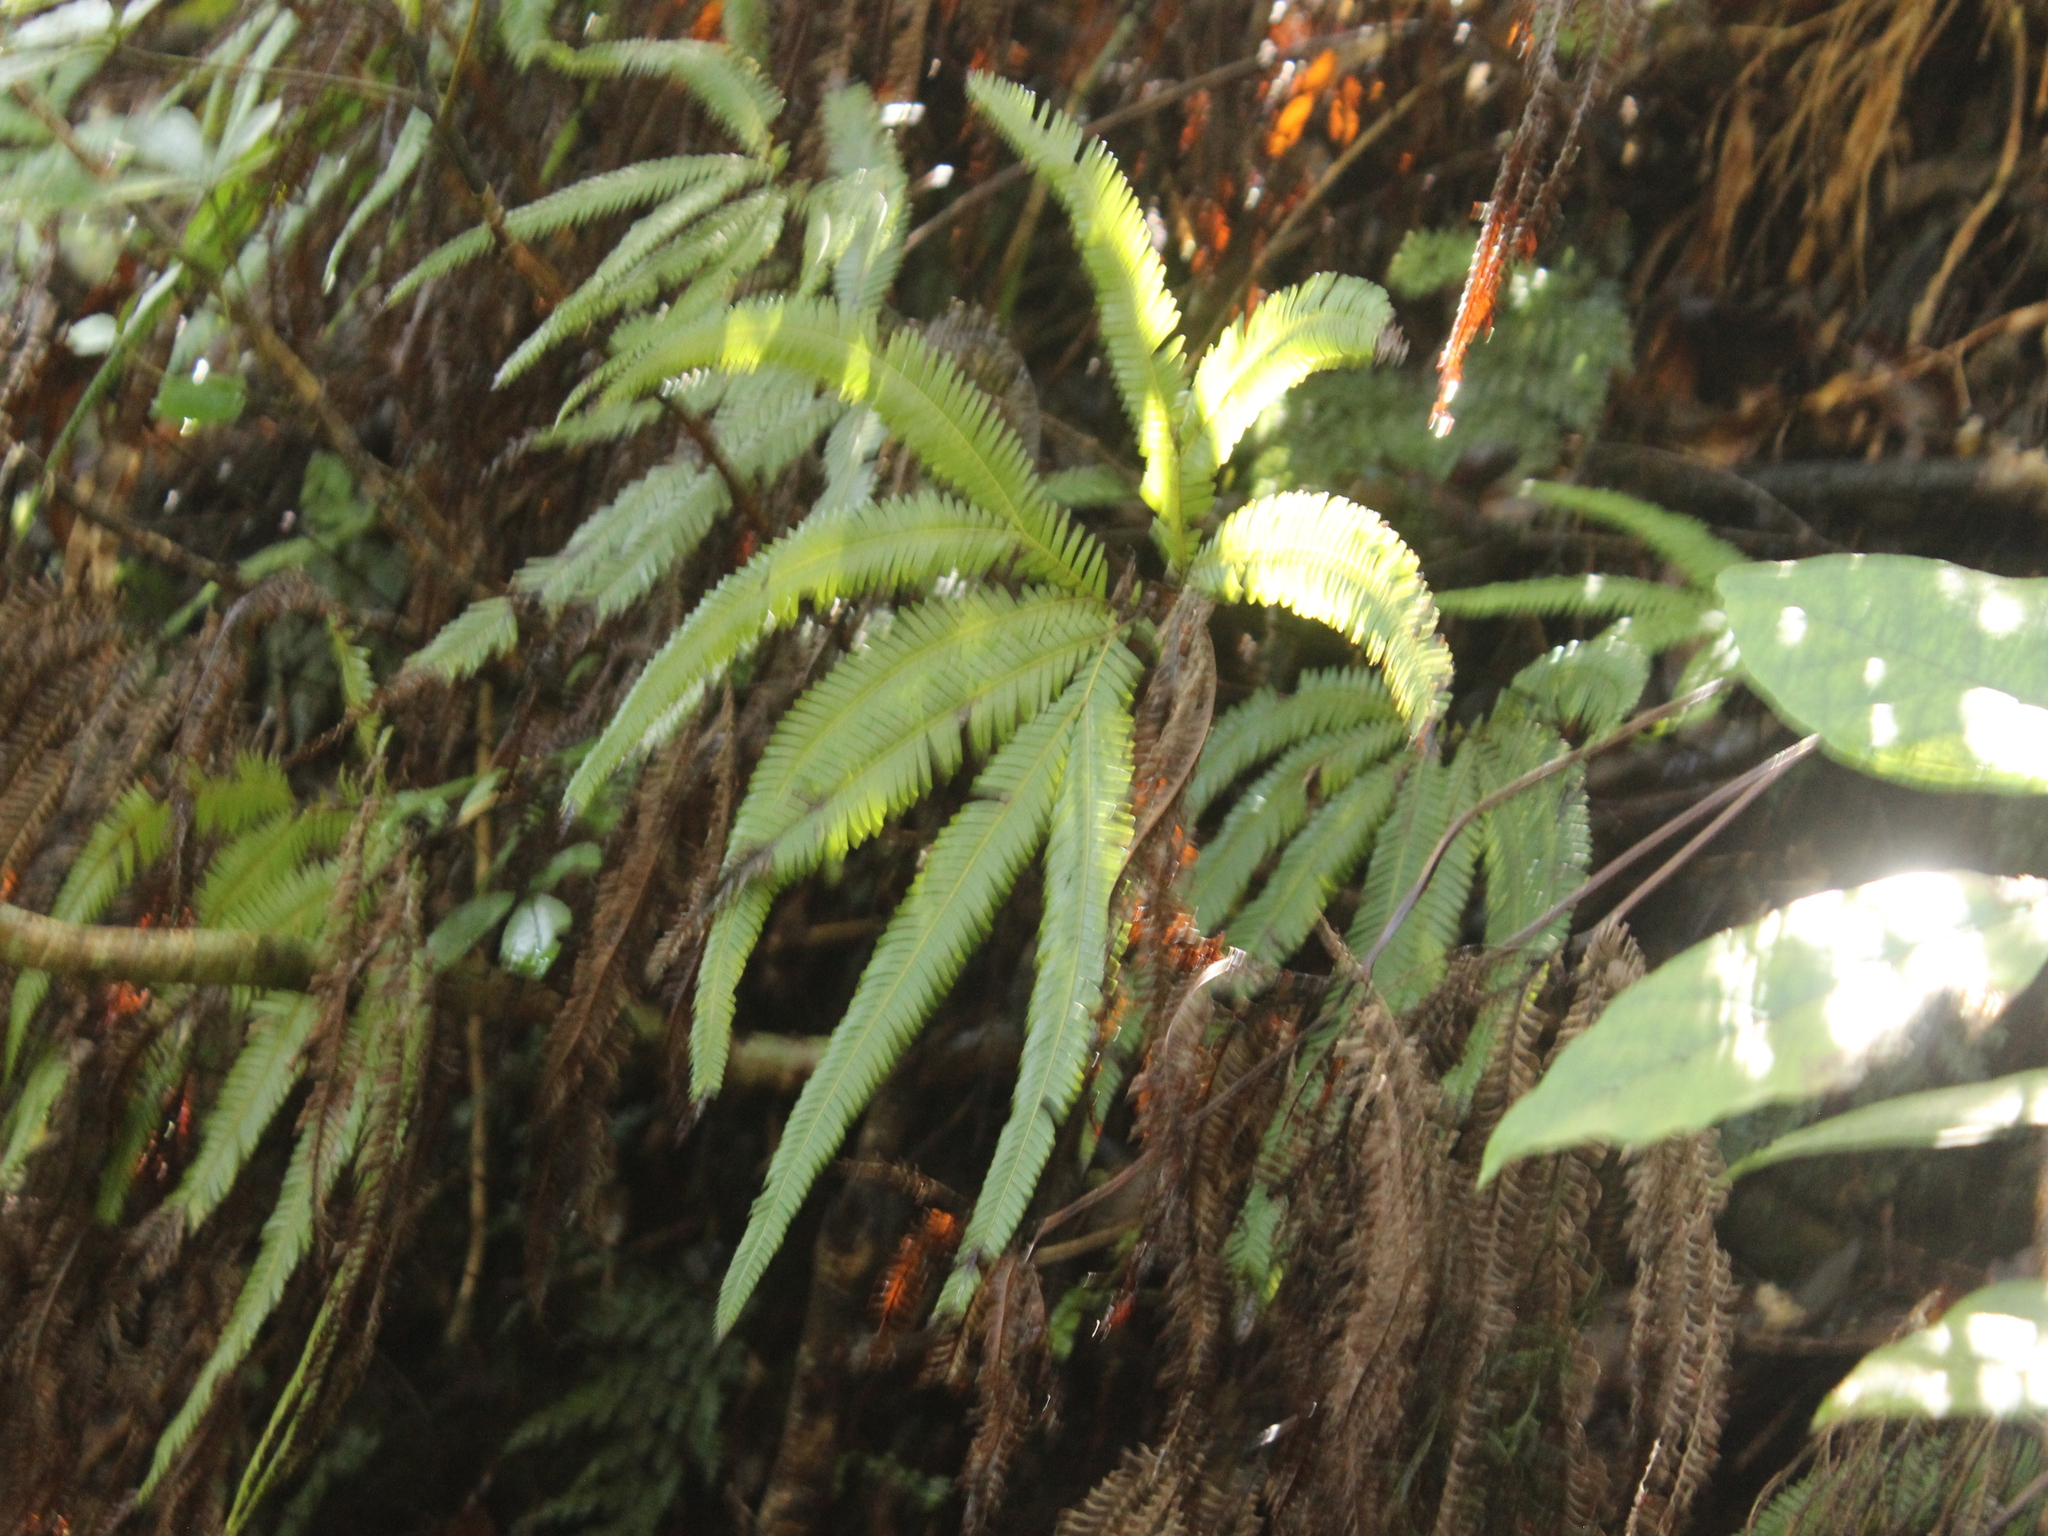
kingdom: Plantae
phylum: Tracheophyta
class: Polypodiopsida
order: Gleicheniales
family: Gleicheniaceae
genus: Sticherus
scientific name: Sticherus cunninghamii
